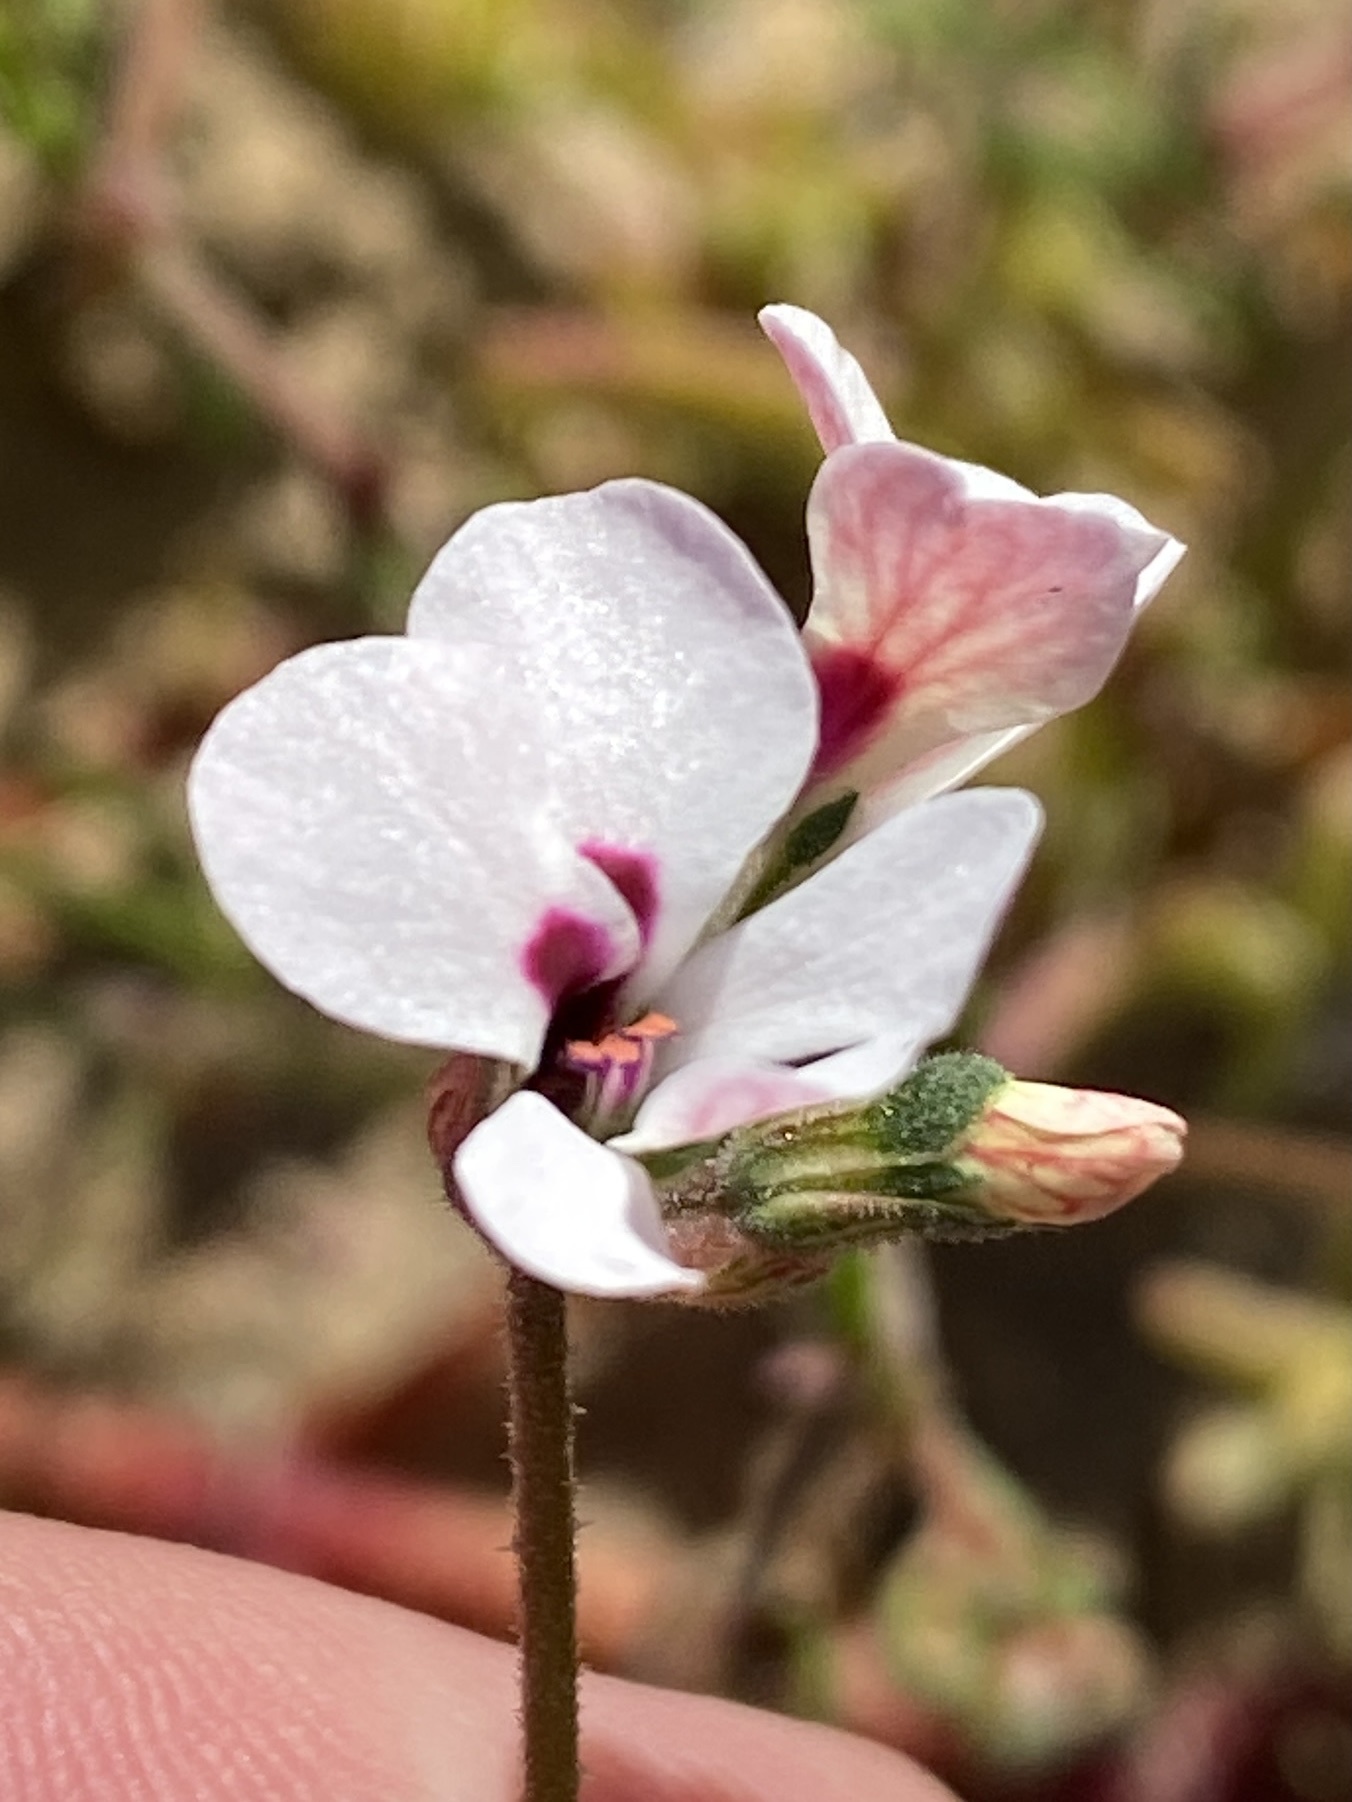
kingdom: Plantae
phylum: Tracheophyta
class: Magnoliopsida
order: Geraniales
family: Geraniaceae
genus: Pelargonium
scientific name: Pelargonium senecioides
